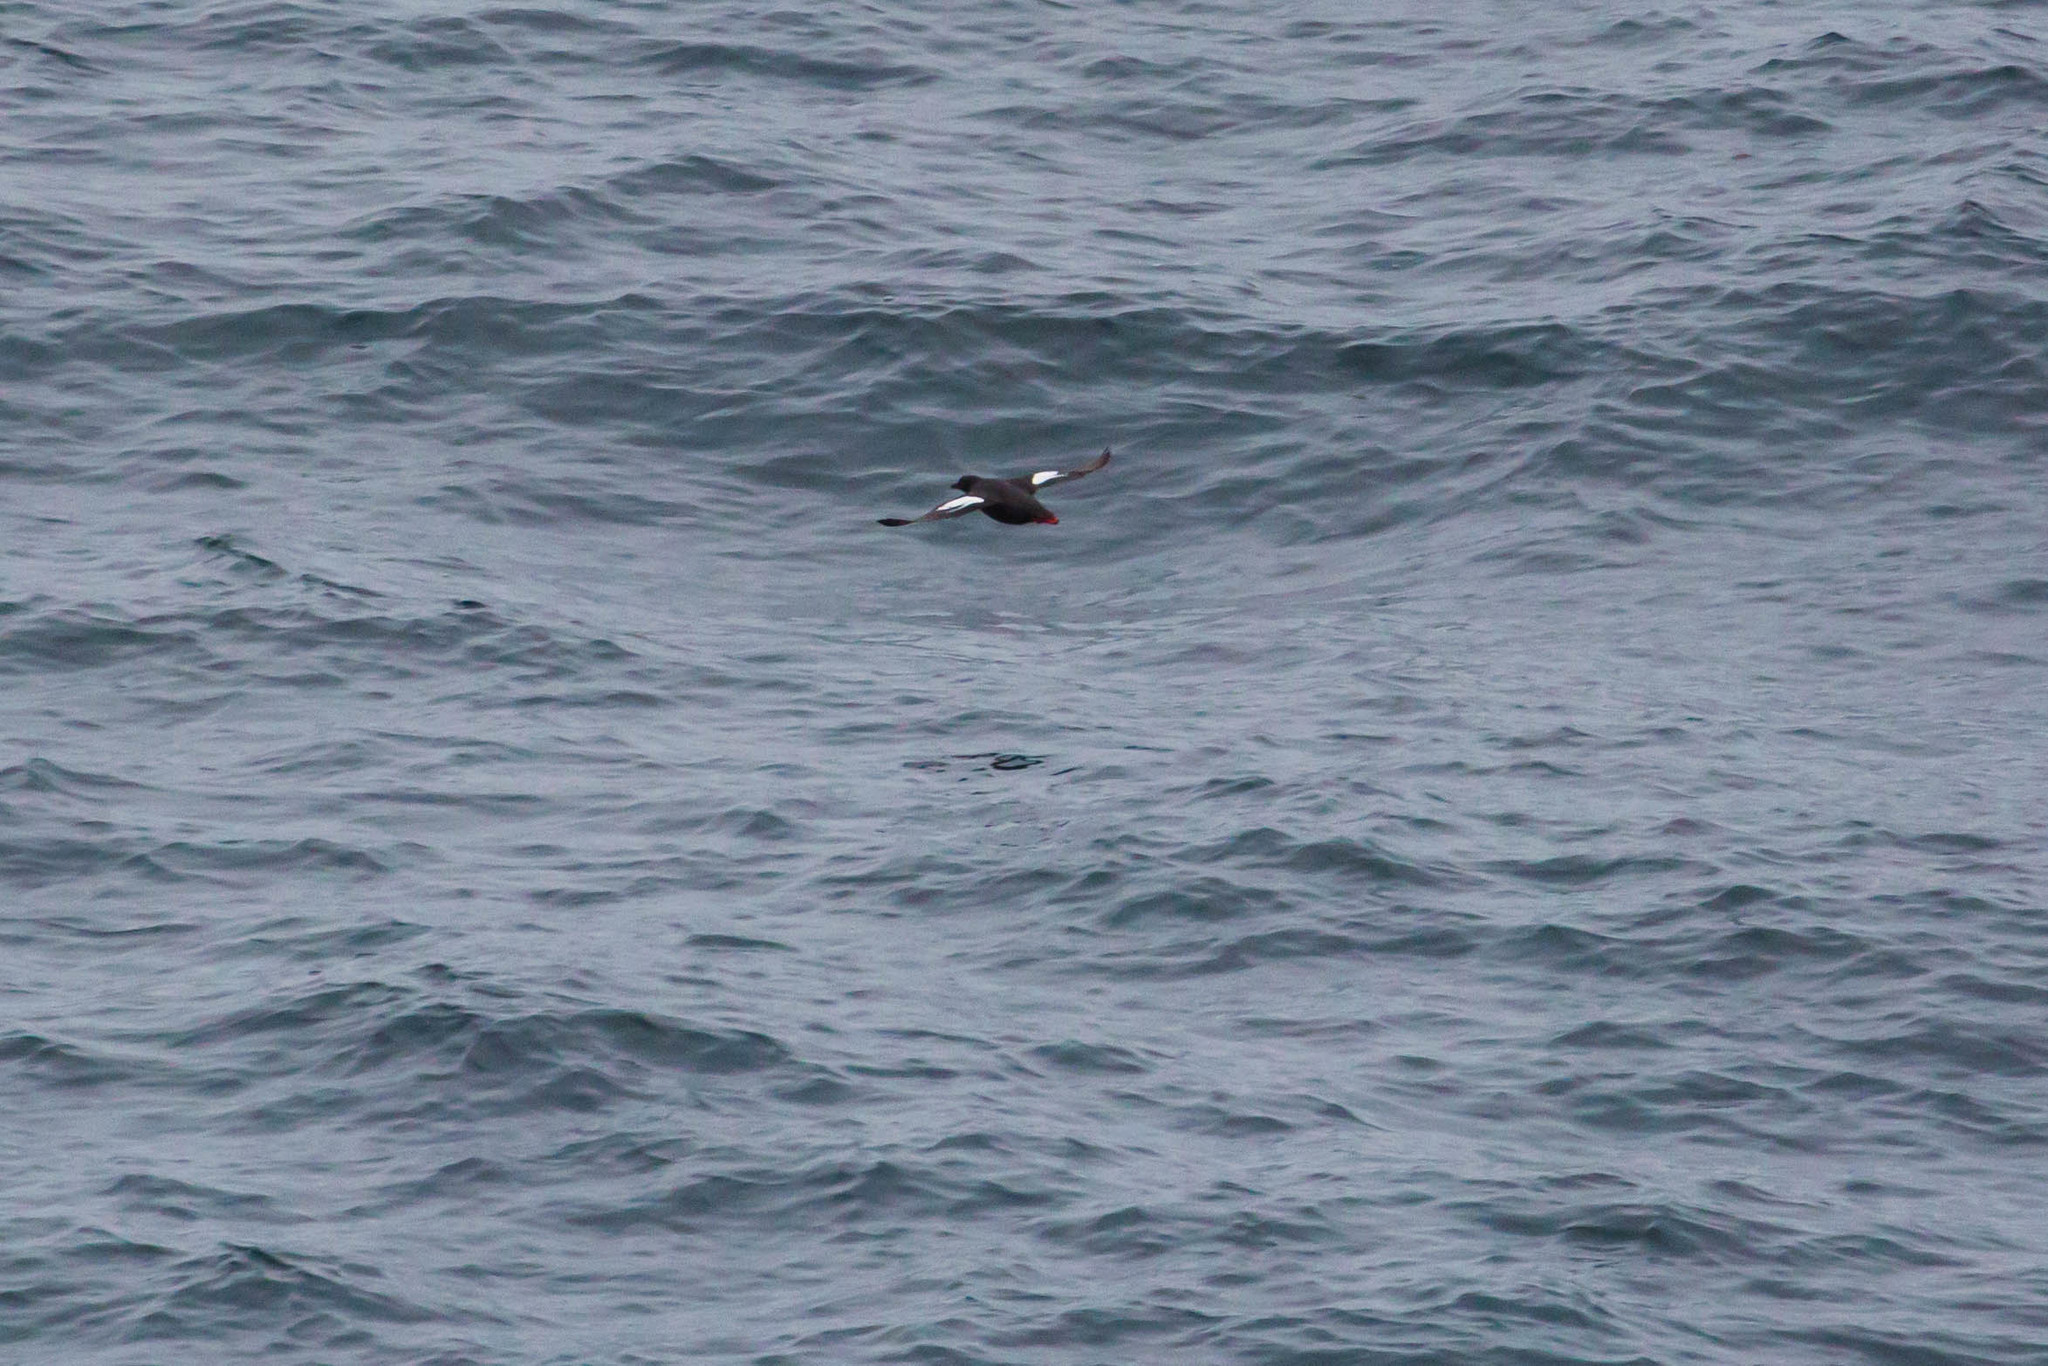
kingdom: Animalia
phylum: Chordata
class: Aves
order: Charadriiformes
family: Alcidae
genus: Cepphus
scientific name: Cepphus columba
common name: Pigeon guillemot
